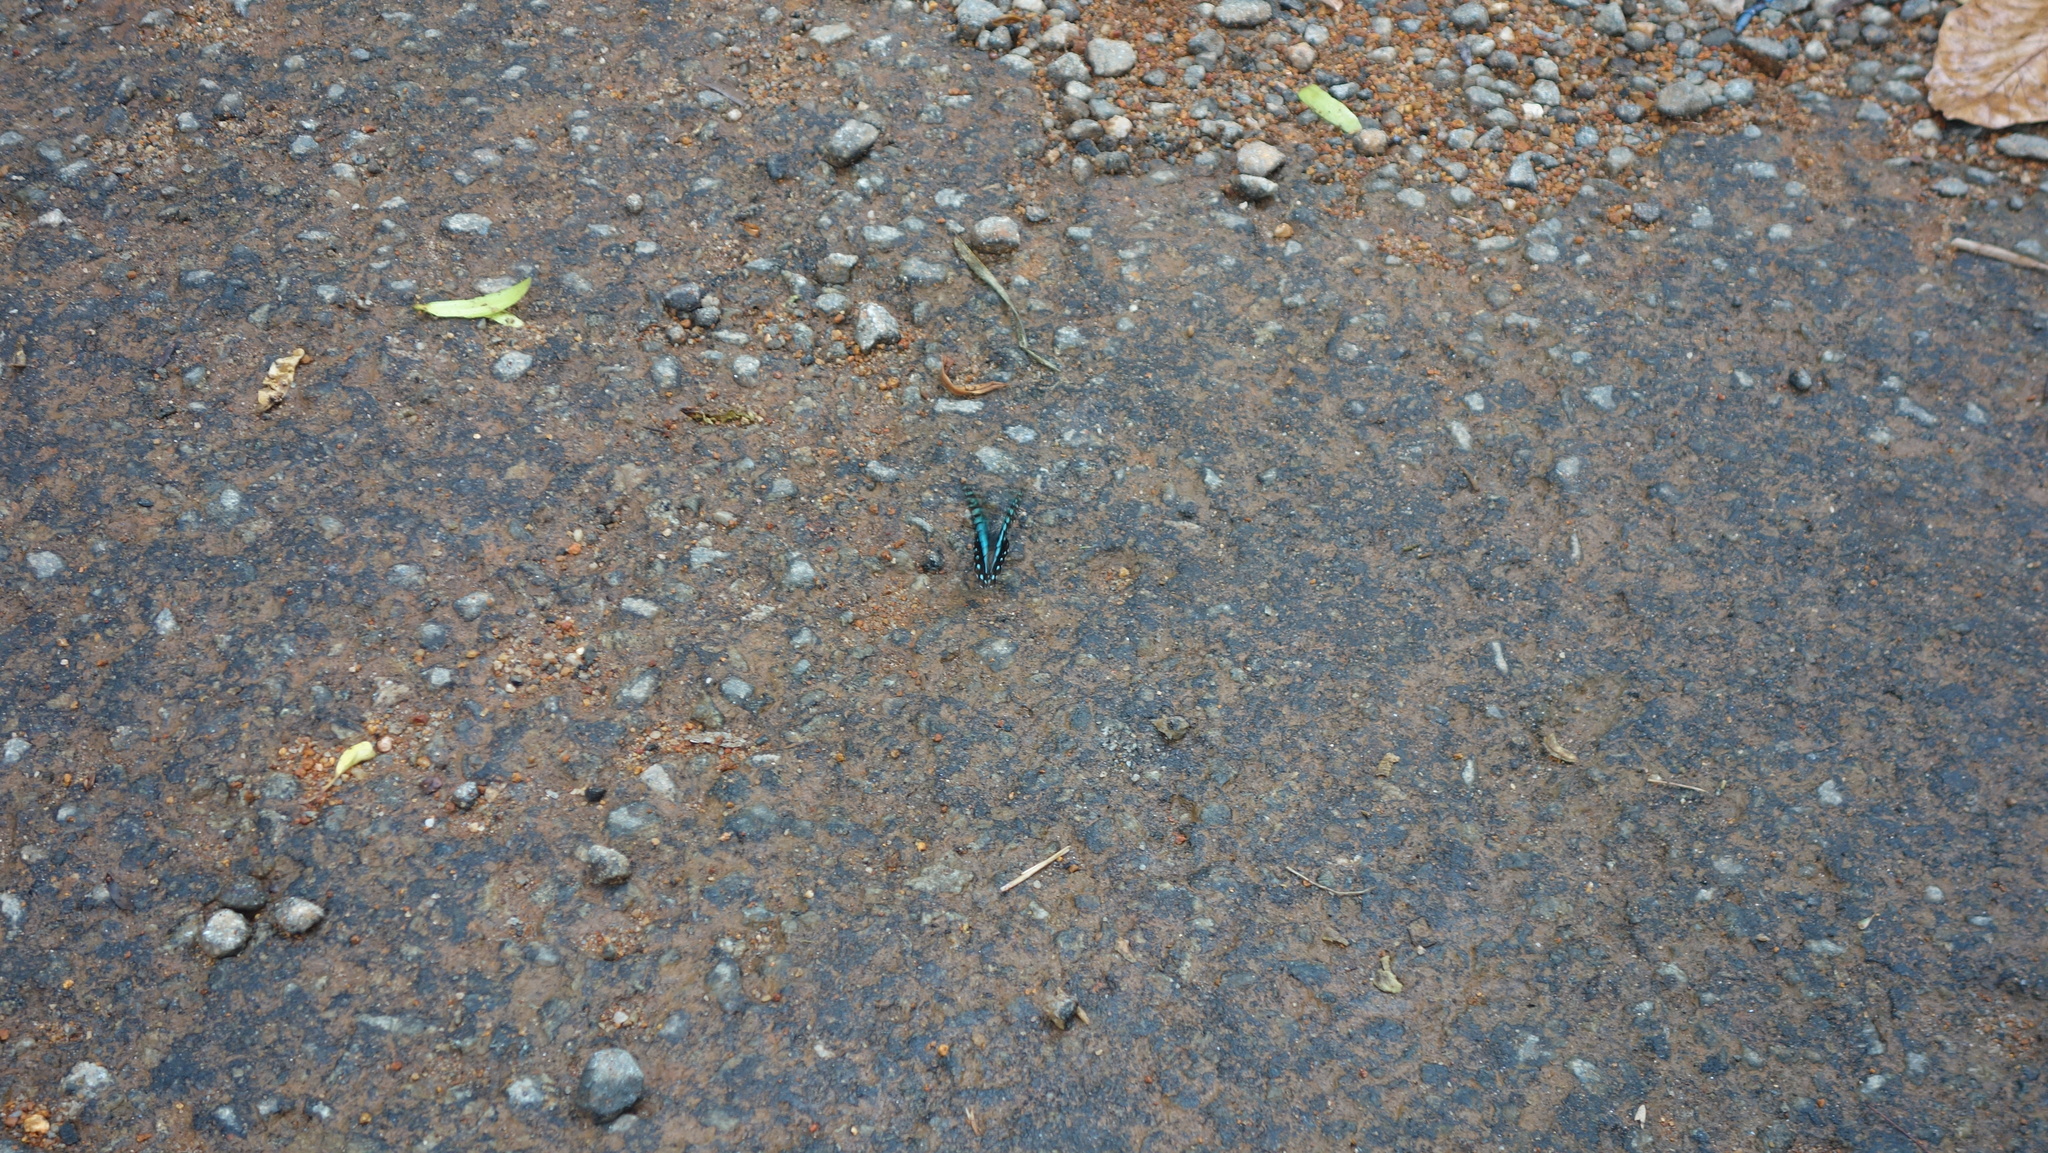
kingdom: Animalia
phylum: Arthropoda
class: Insecta
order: Lepidoptera
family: Papilionidae
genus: Graphium
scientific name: Graphium doson
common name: Common jay
